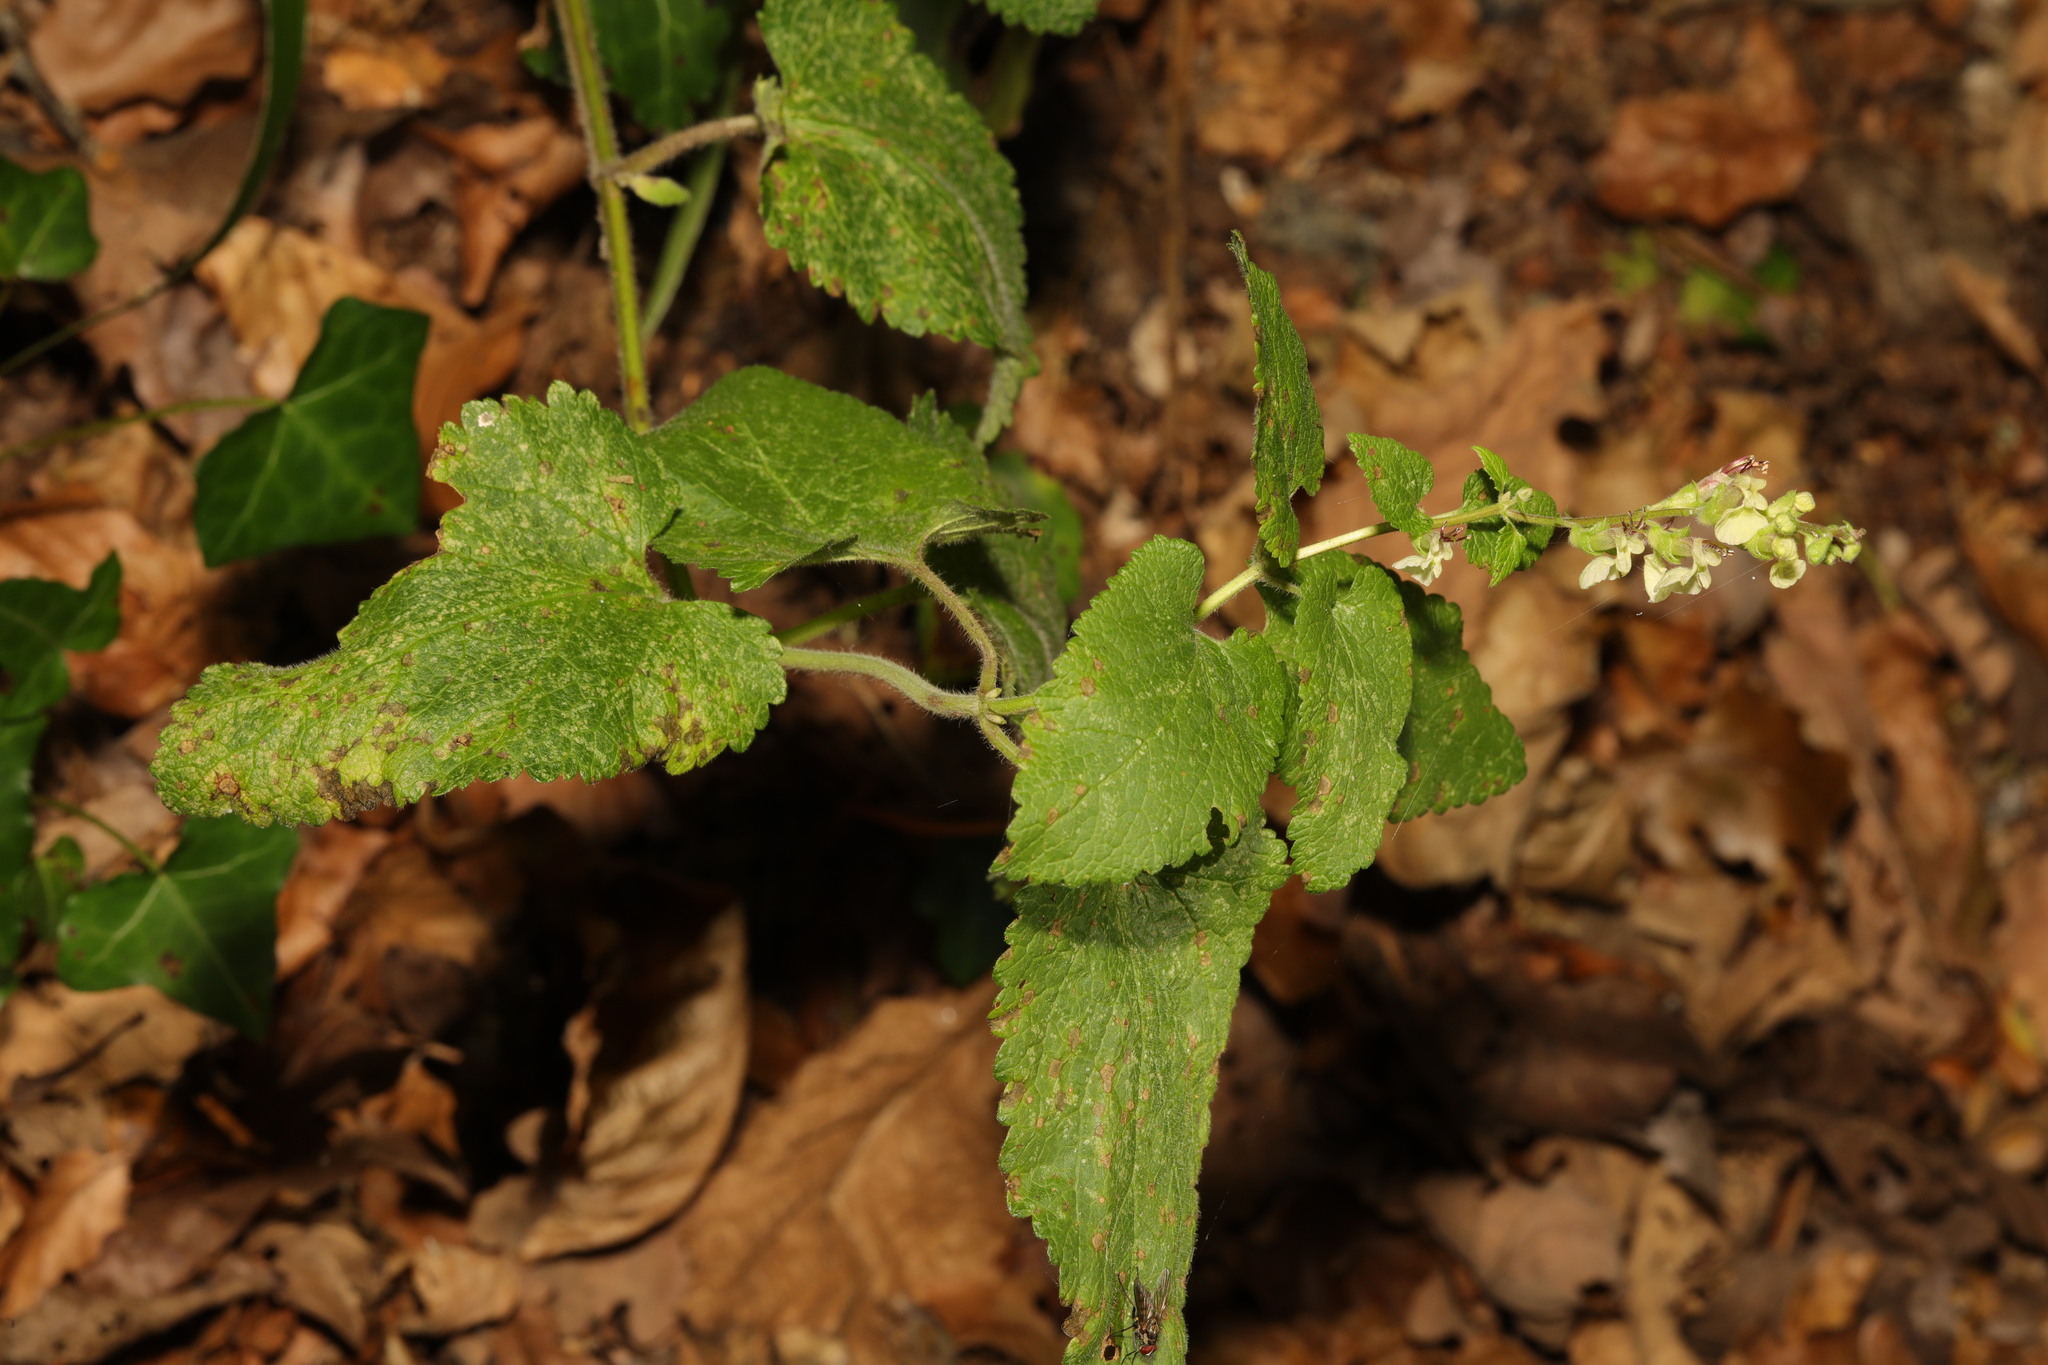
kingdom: Plantae
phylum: Tracheophyta
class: Magnoliopsida
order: Lamiales
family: Lamiaceae
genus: Teucrium
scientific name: Teucrium scorodonia
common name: Woodland germander
